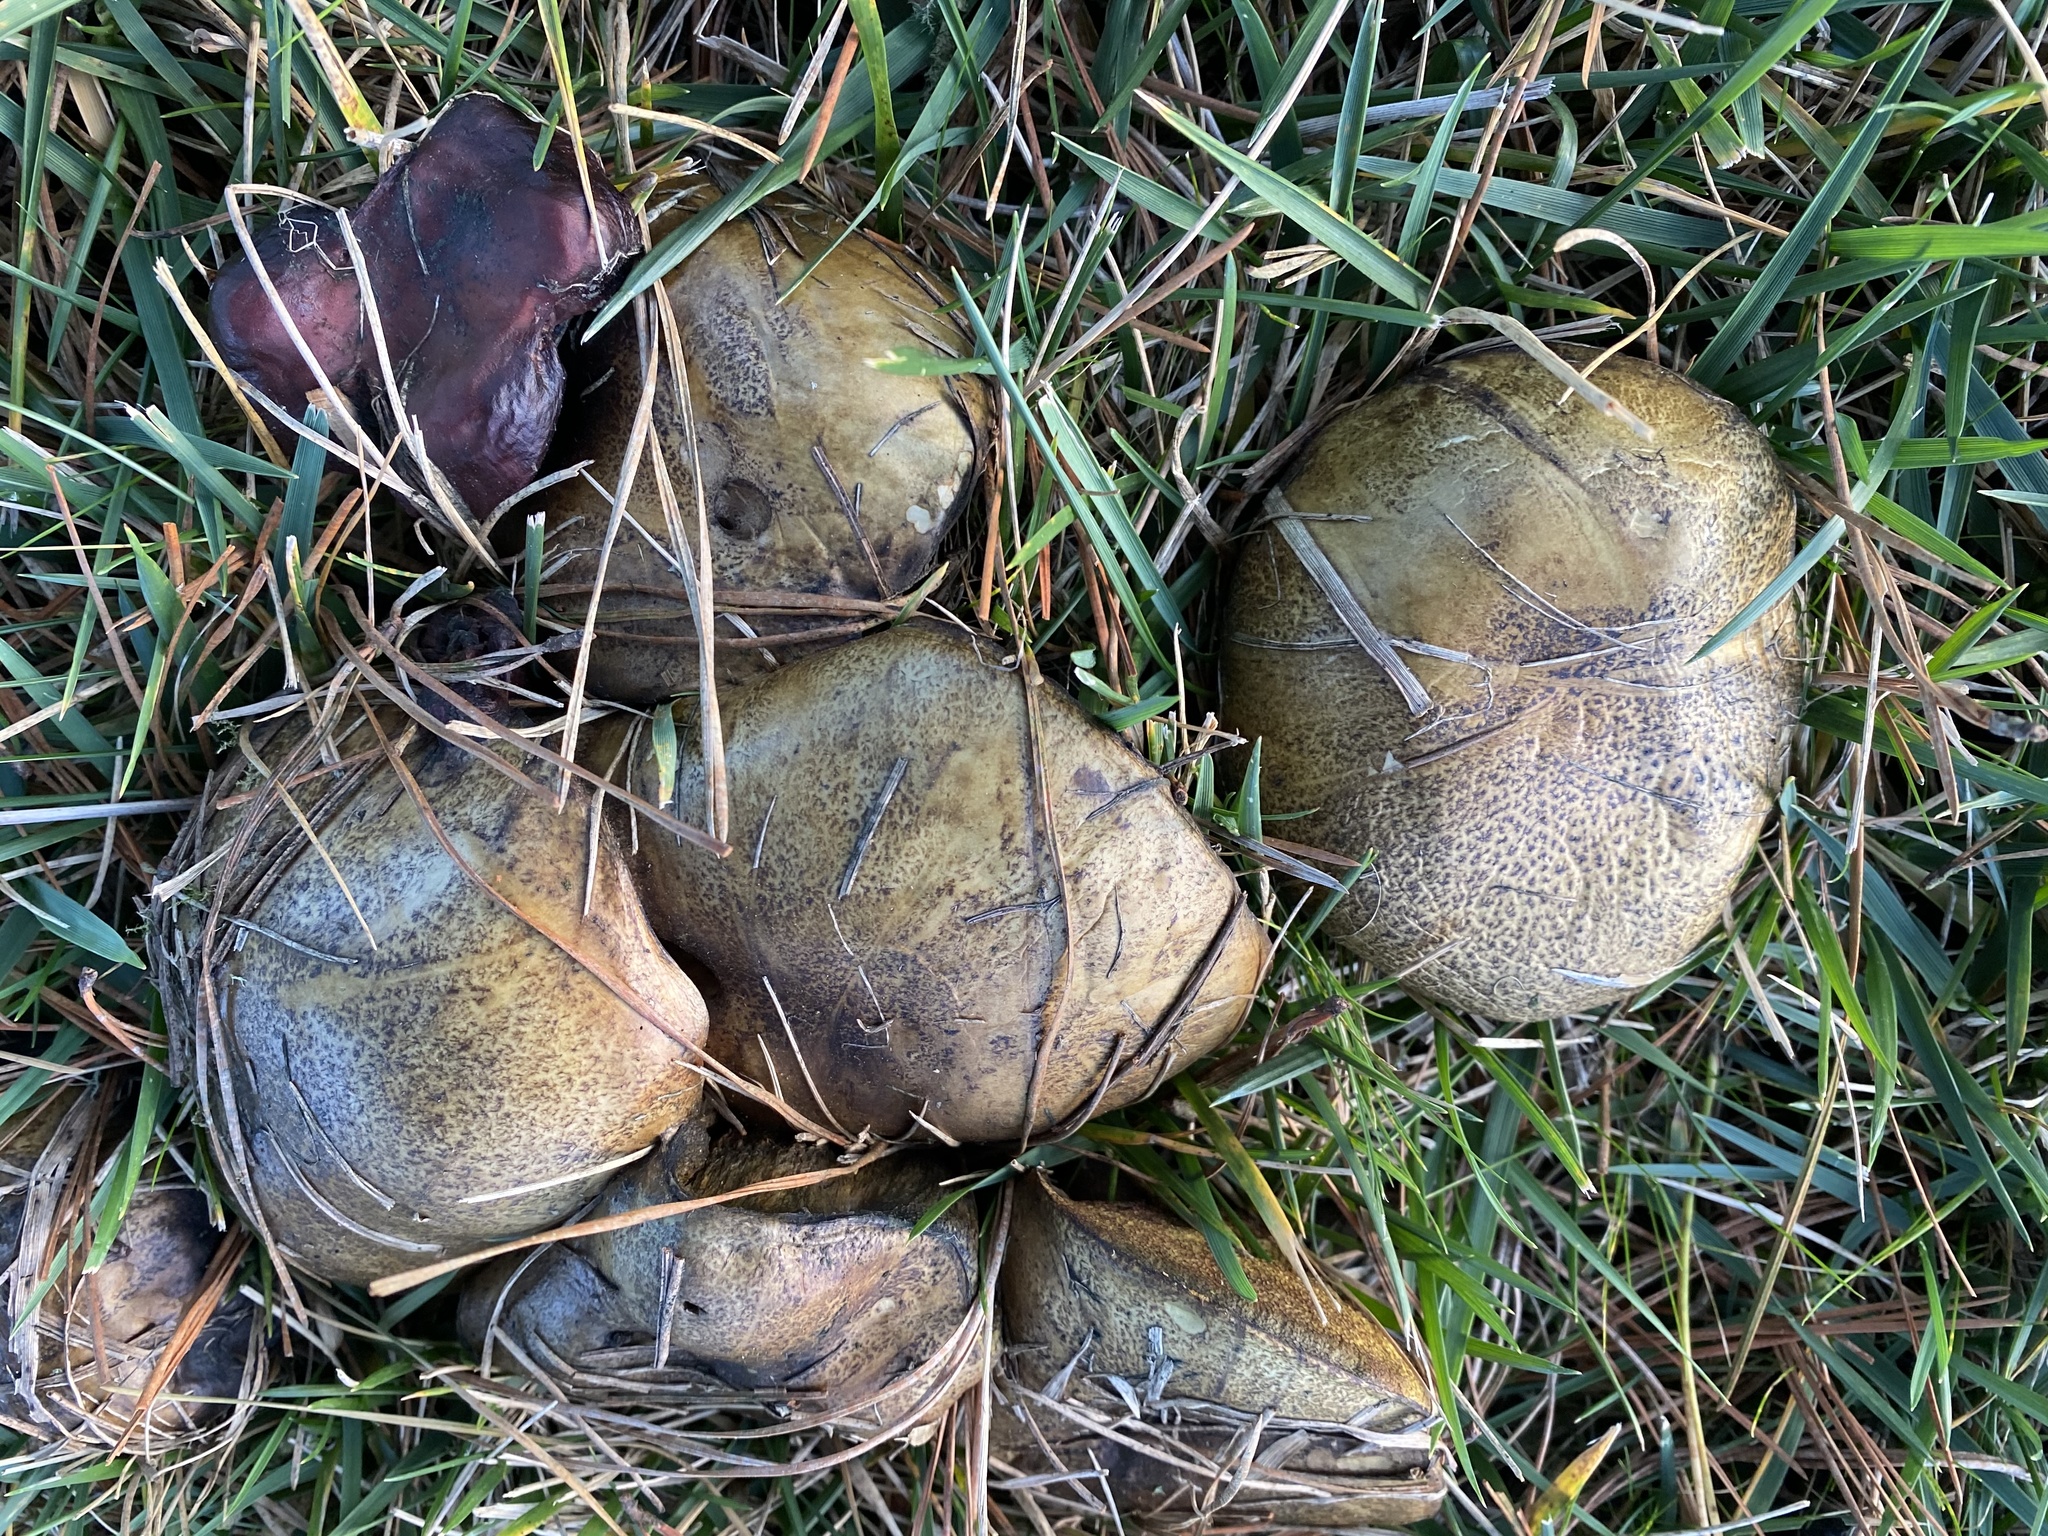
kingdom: Fungi
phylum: Basidiomycota
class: Agaricomycetes
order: Boletales
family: Suillaceae
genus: Suillus
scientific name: Suillus fuscotomentosus
